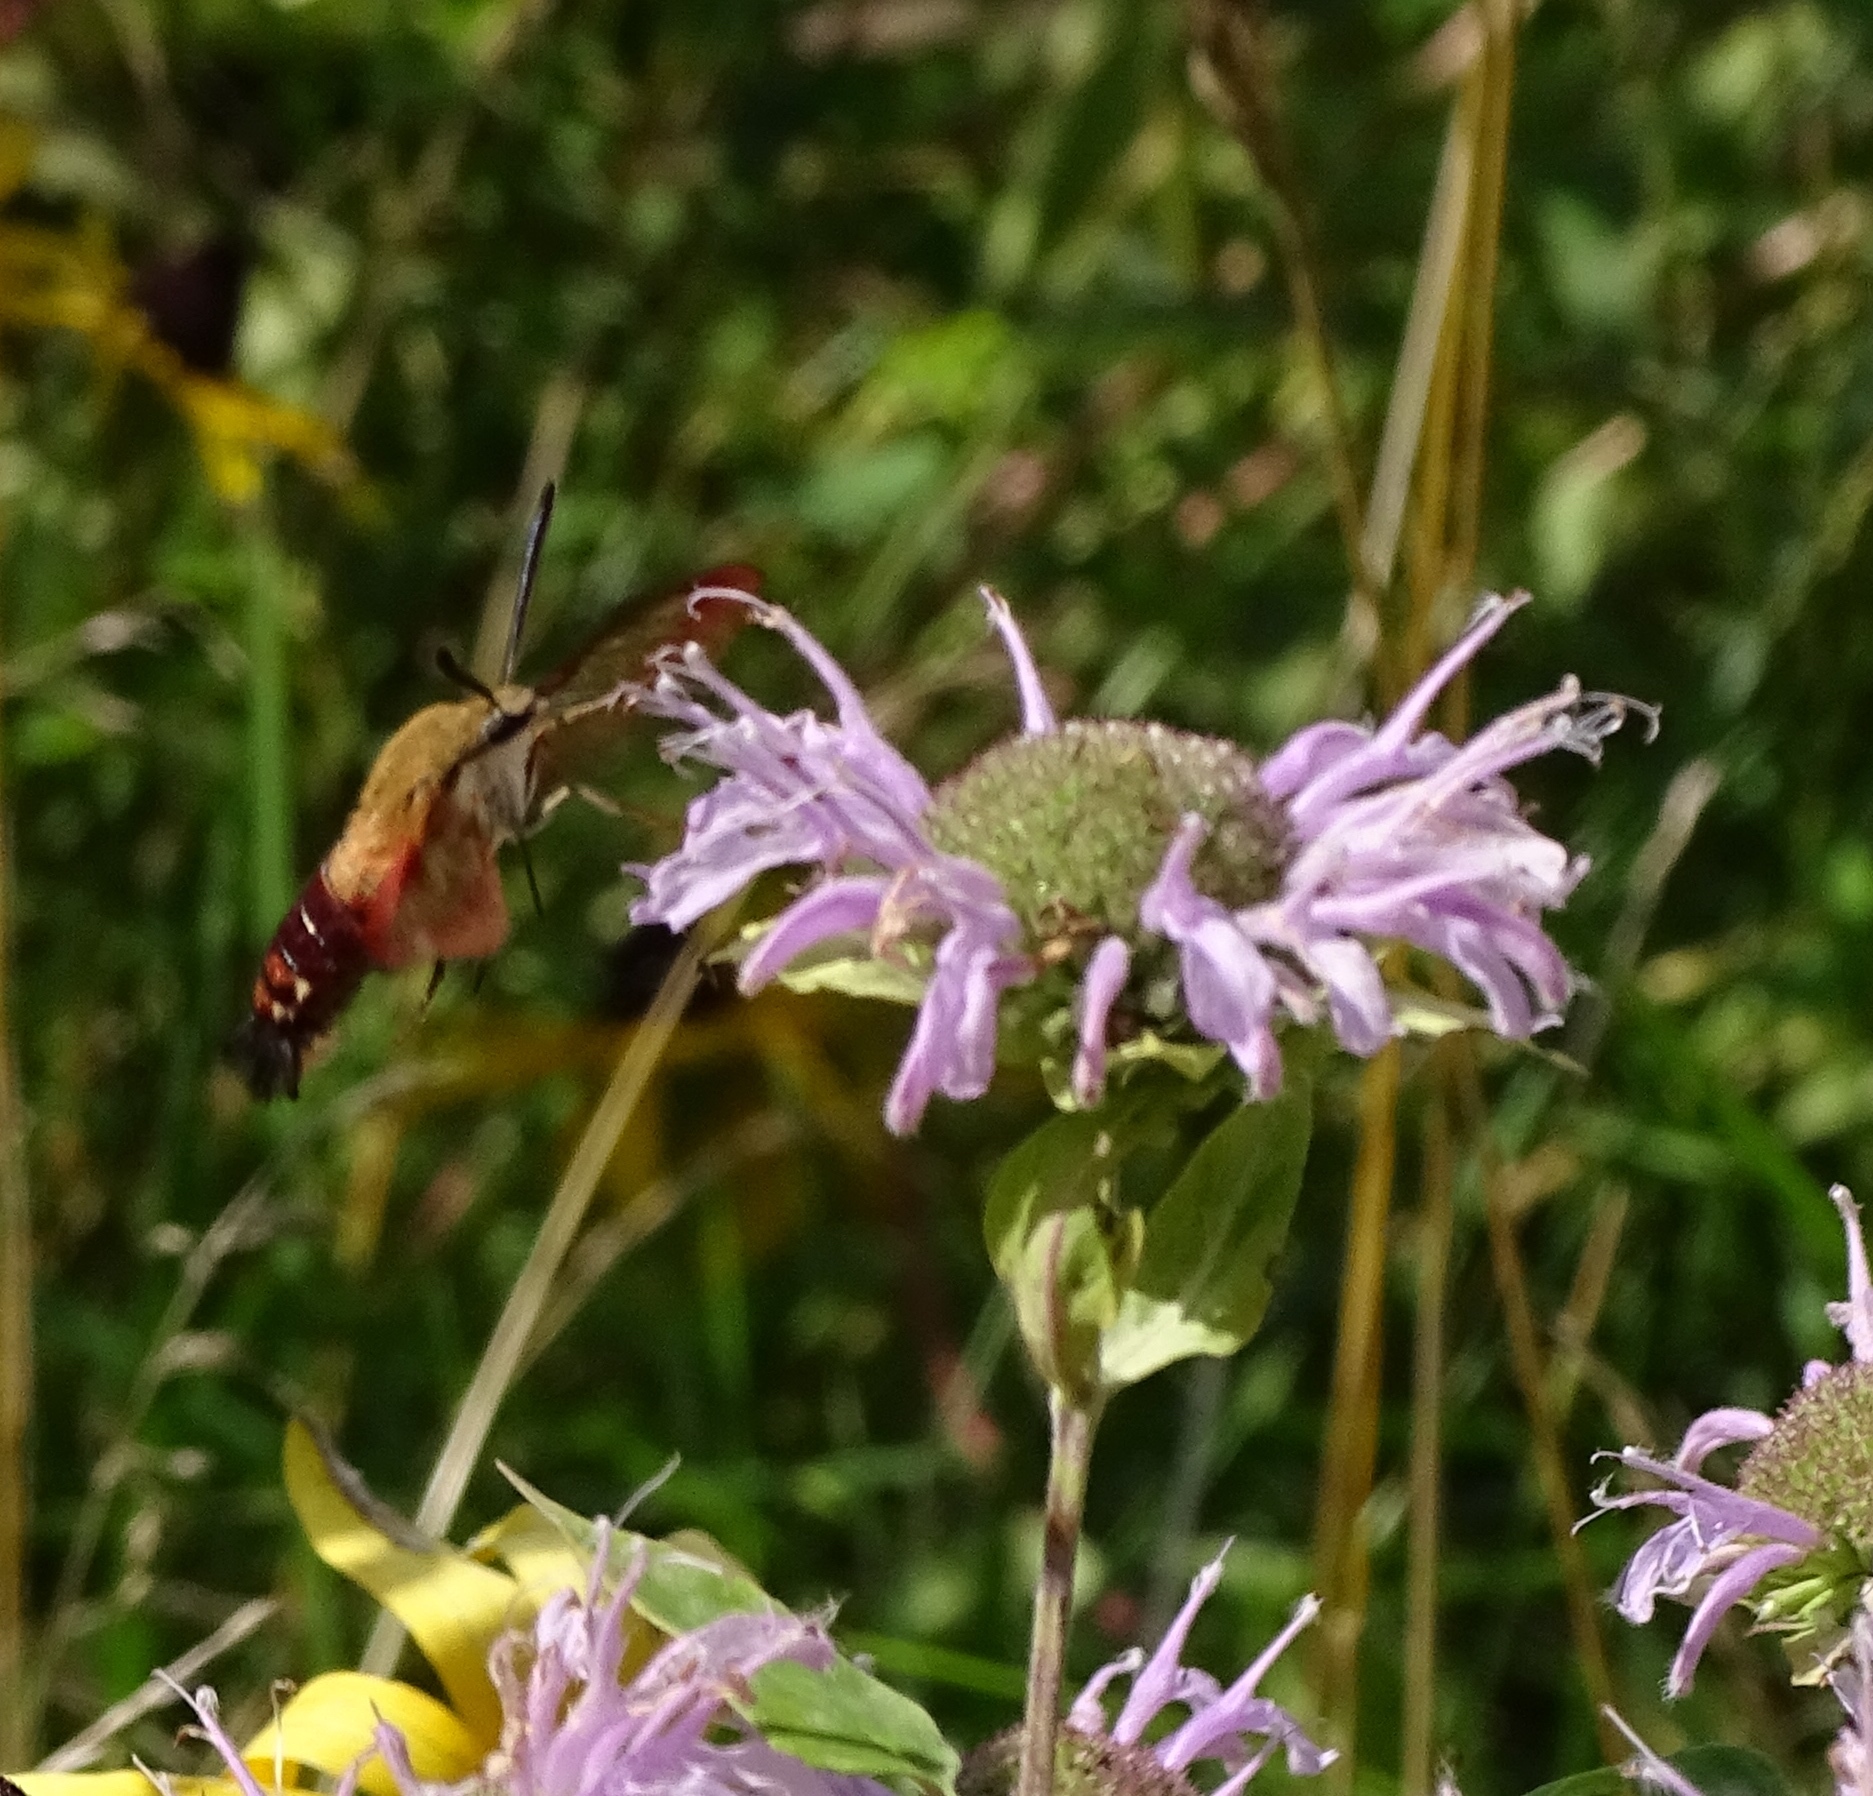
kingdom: Animalia
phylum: Arthropoda
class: Insecta
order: Lepidoptera
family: Sphingidae
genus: Hemaris
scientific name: Hemaris thysbe
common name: Common clear-wing
